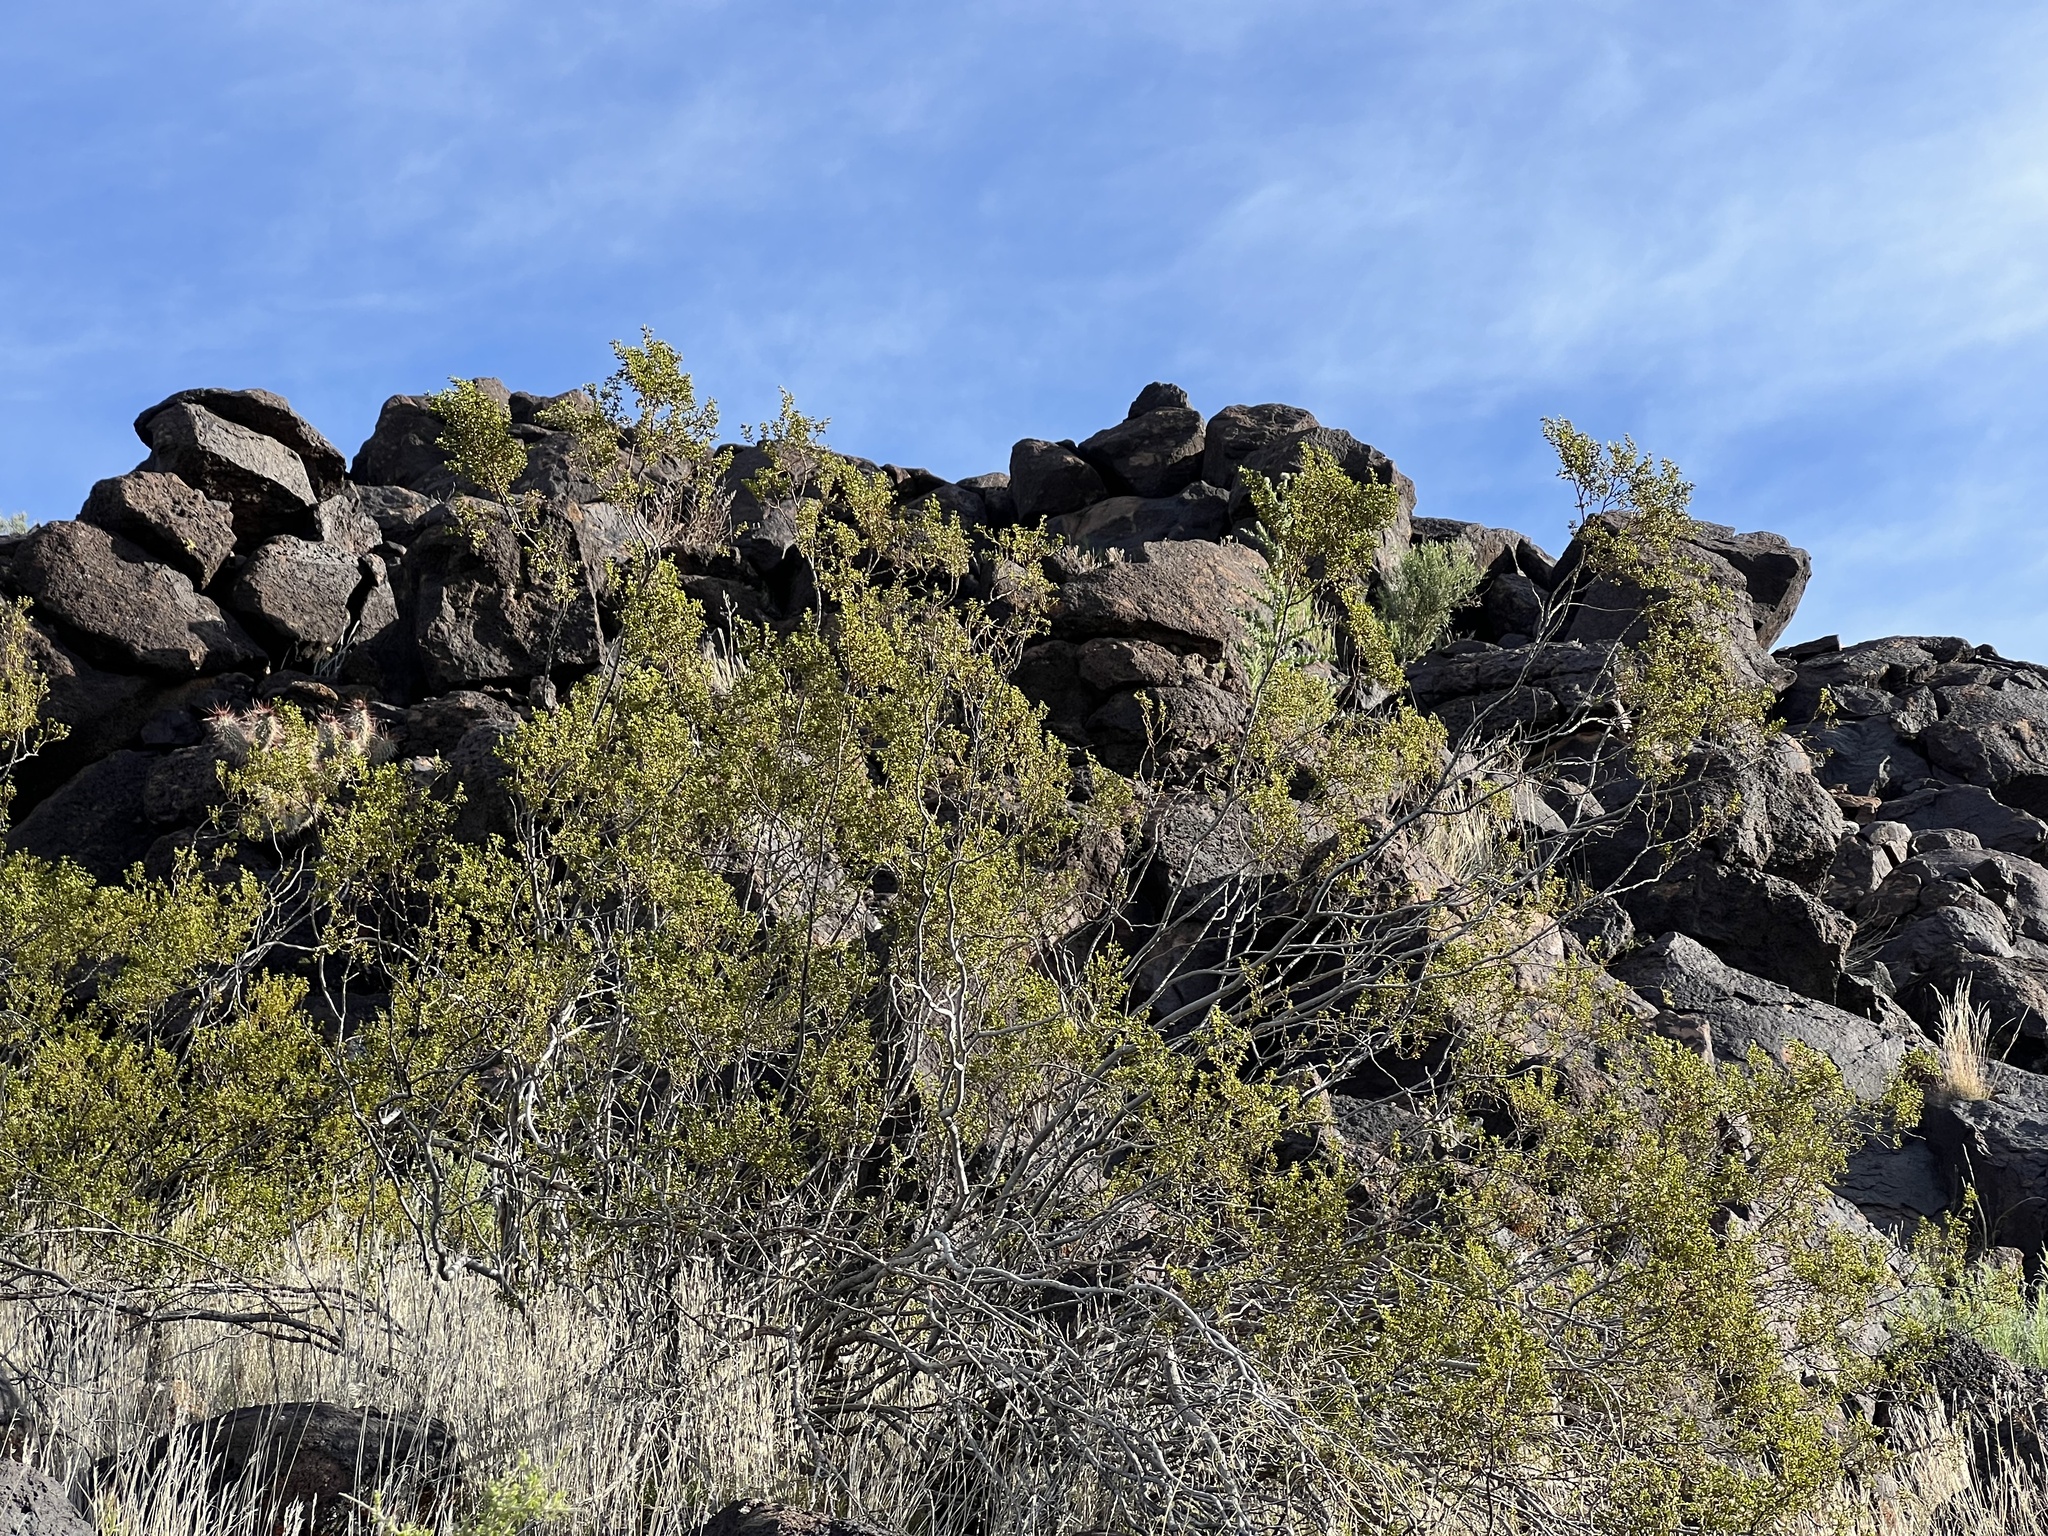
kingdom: Plantae
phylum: Tracheophyta
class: Magnoliopsida
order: Zygophyllales
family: Zygophyllaceae
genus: Larrea
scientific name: Larrea tridentata
